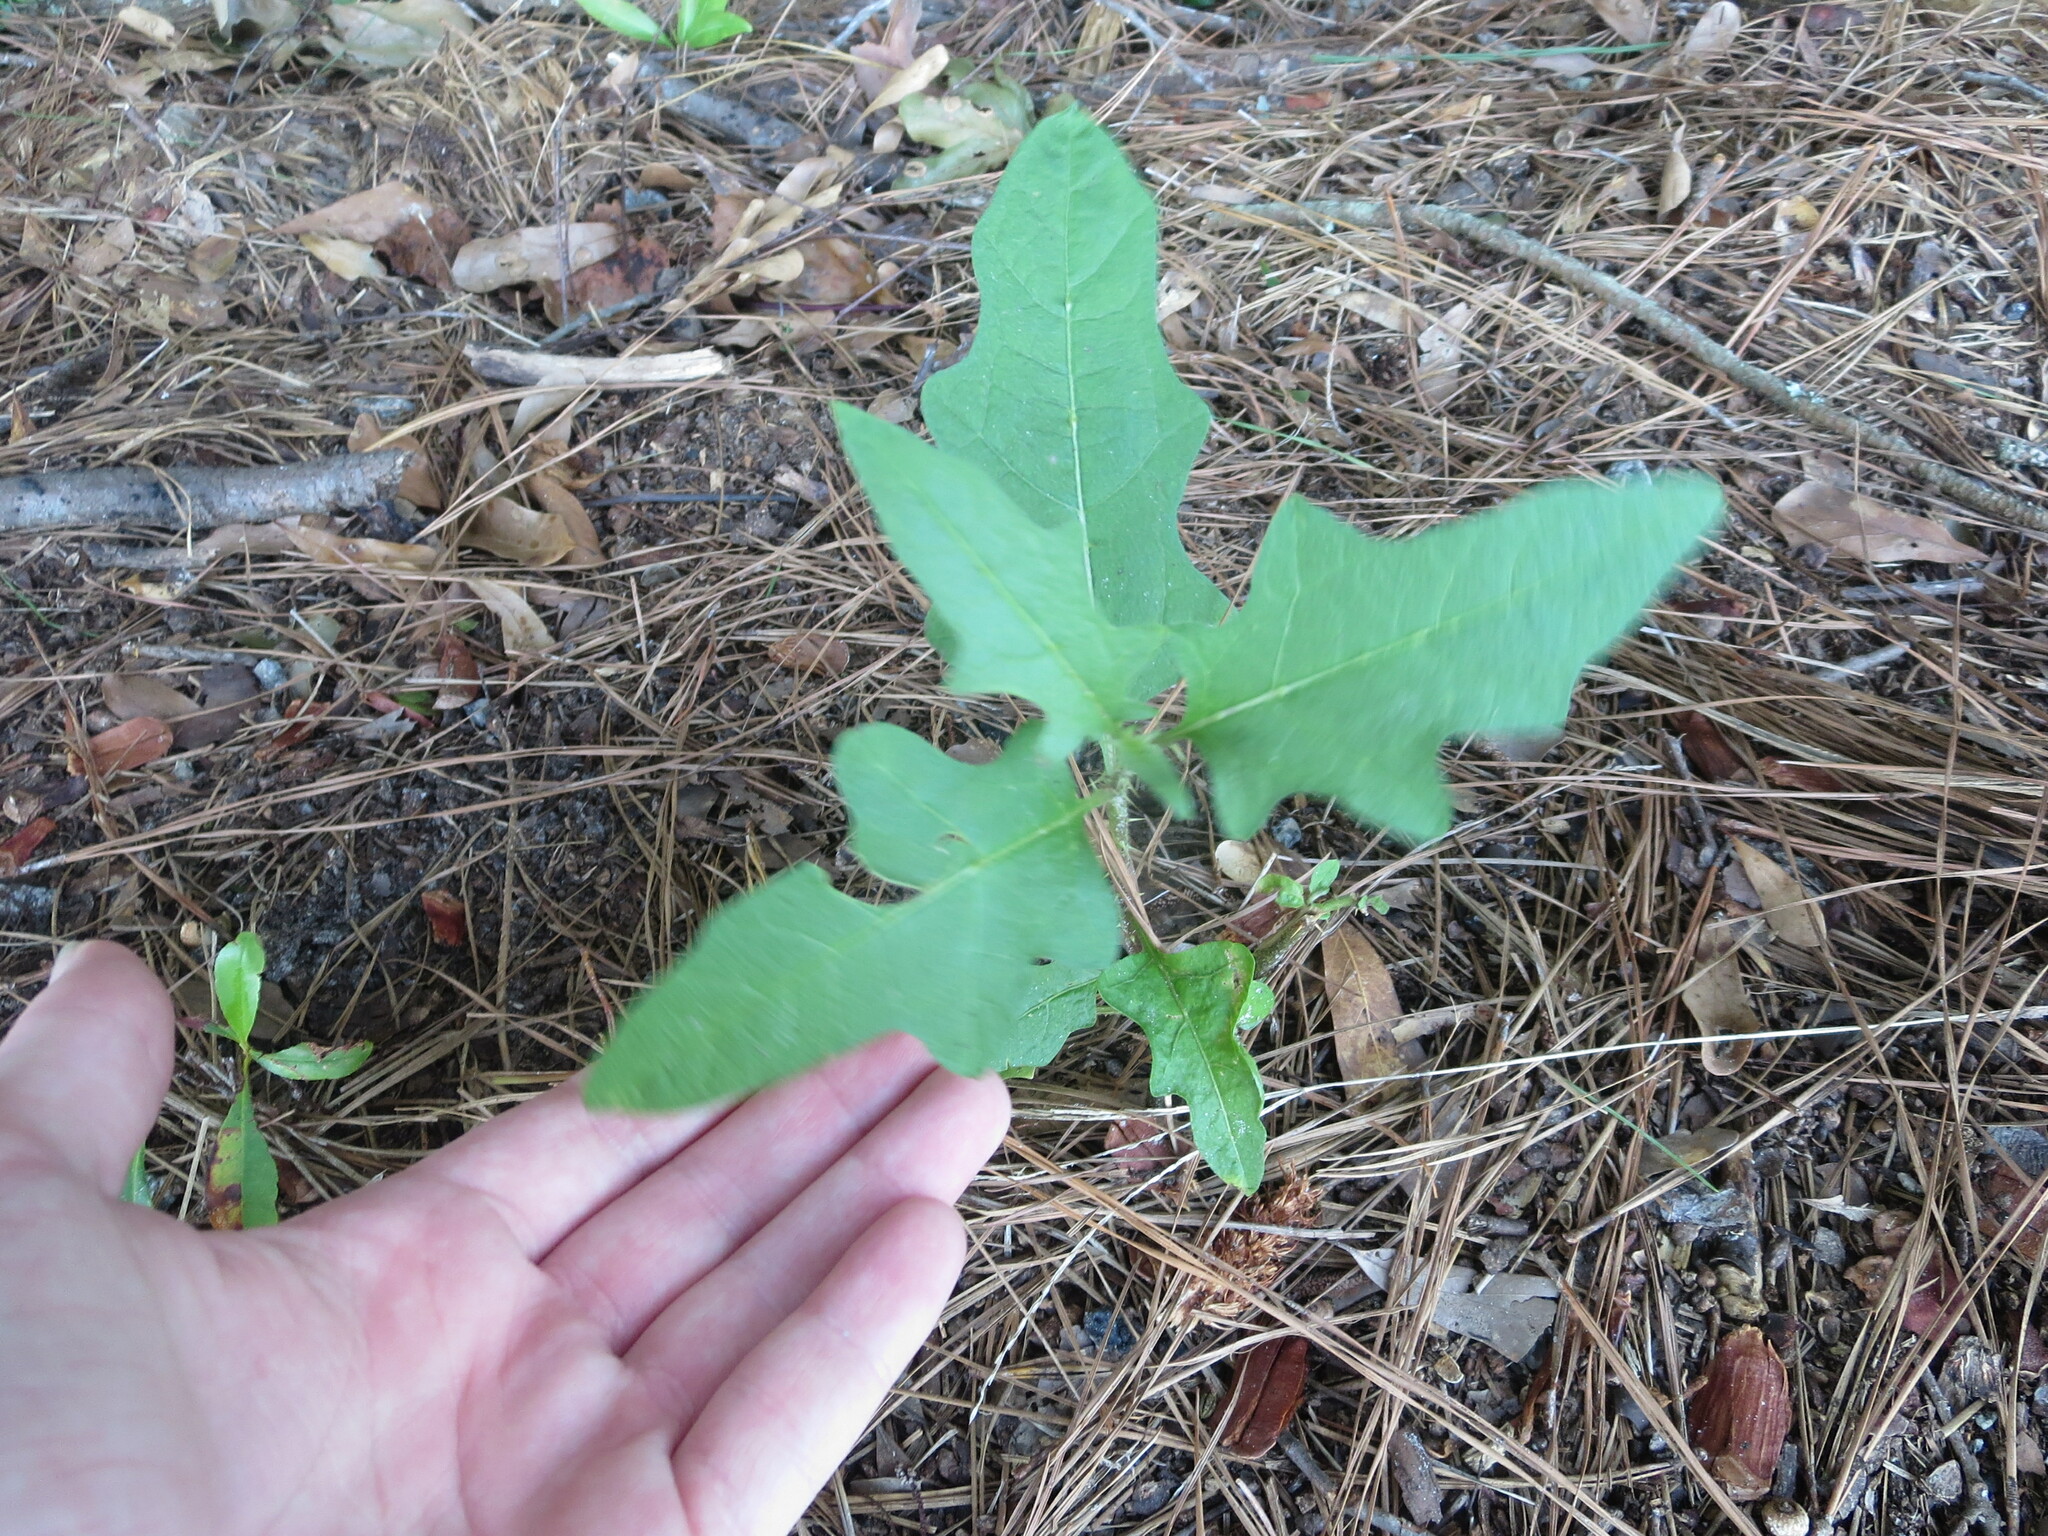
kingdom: Plantae
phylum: Tracheophyta
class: Magnoliopsida
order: Solanales
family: Solanaceae
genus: Solanum
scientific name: Solanum carolinense
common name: Horse-nettle
